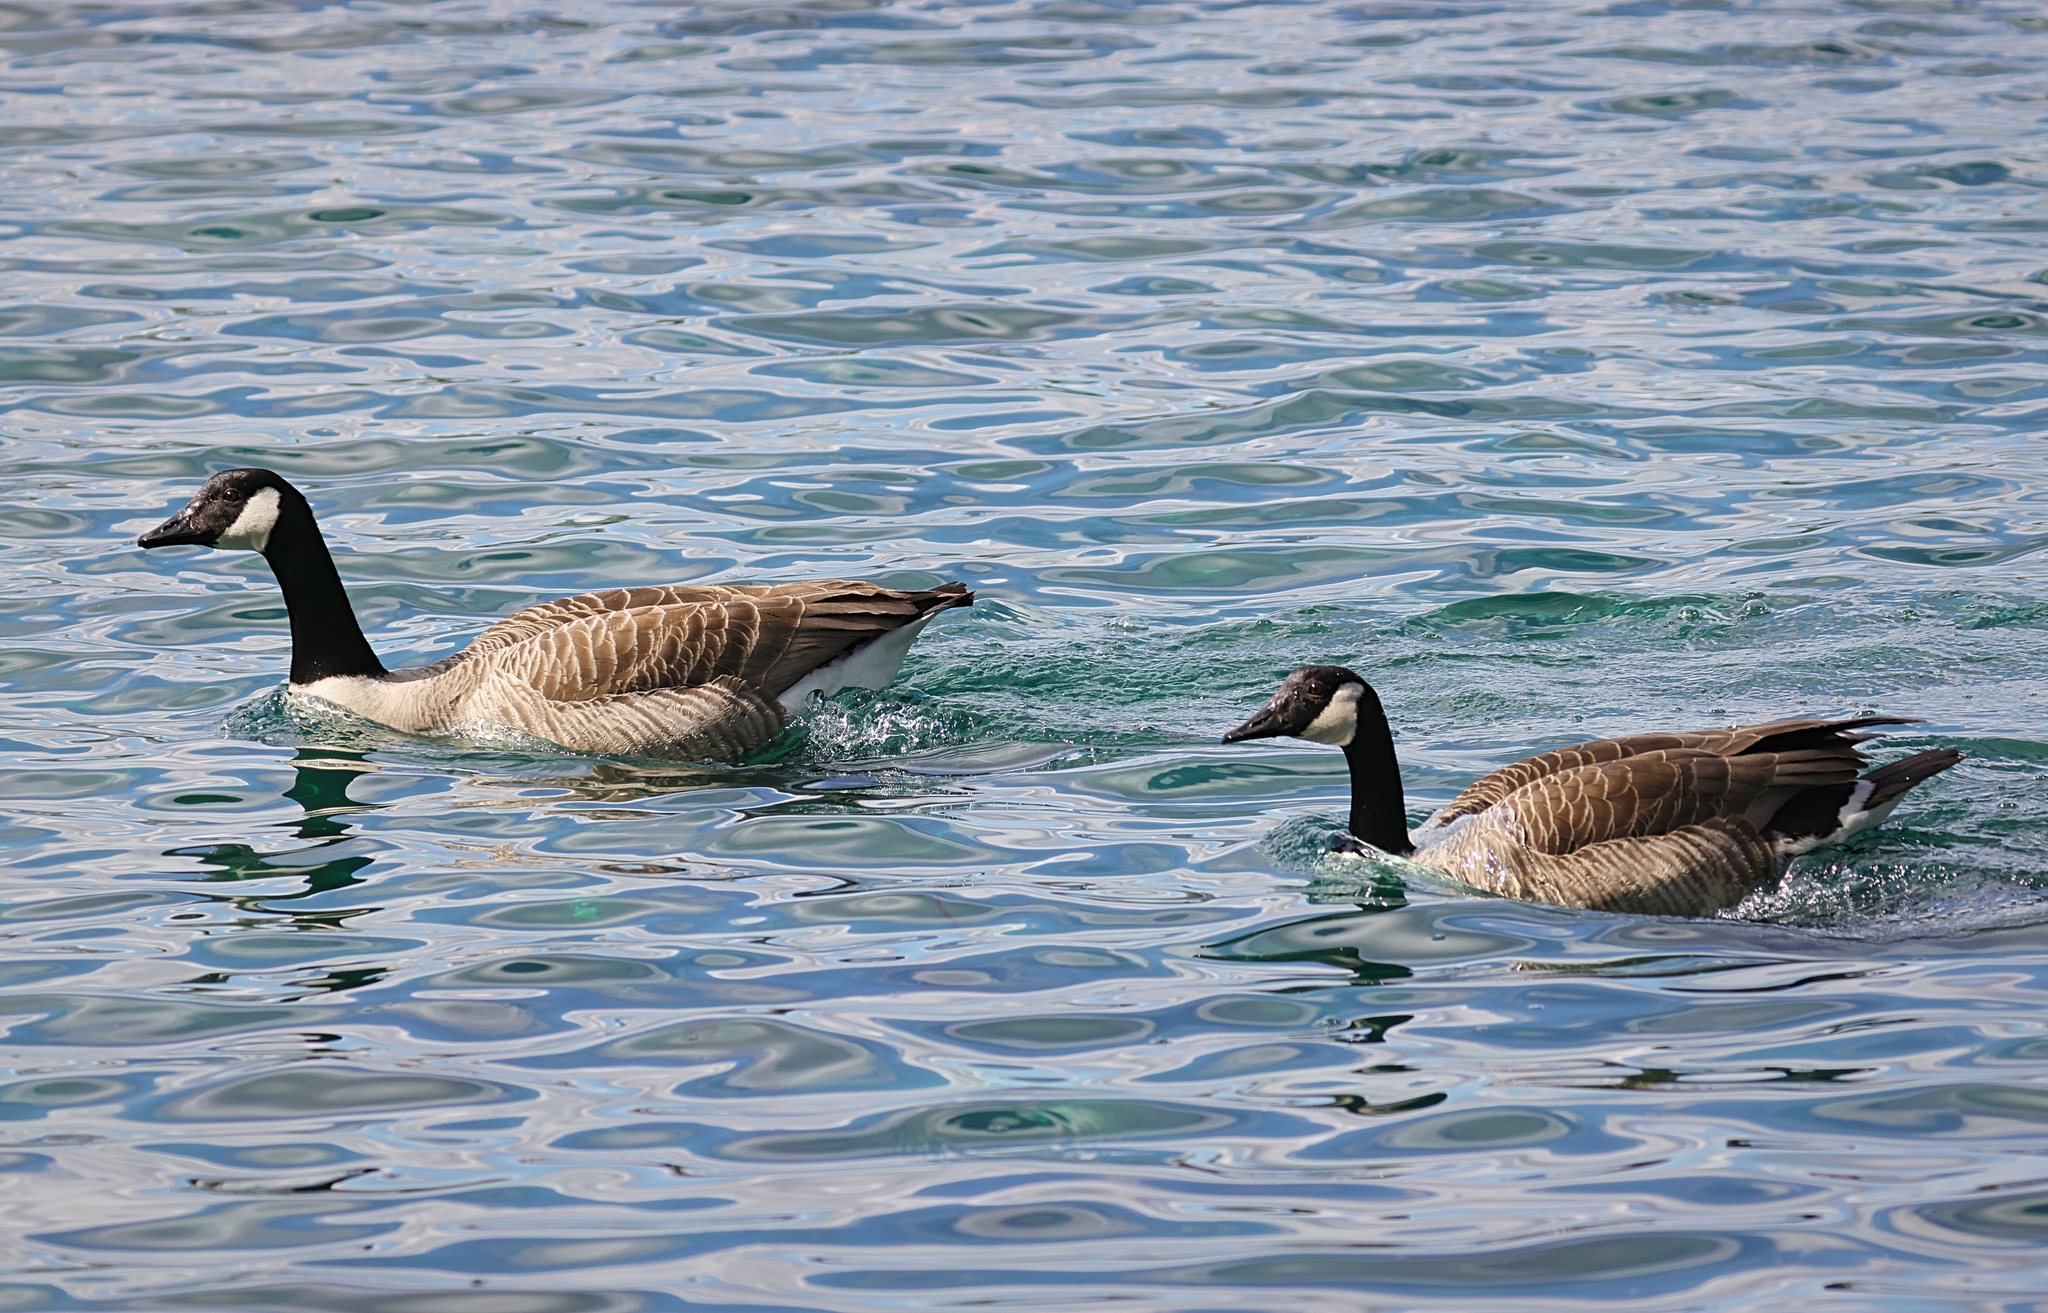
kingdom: Animalia
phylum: Chordata
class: Aves
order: Anseriformes
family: Anatidae
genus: Branta
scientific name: Branta canadensis
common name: Canada goose
